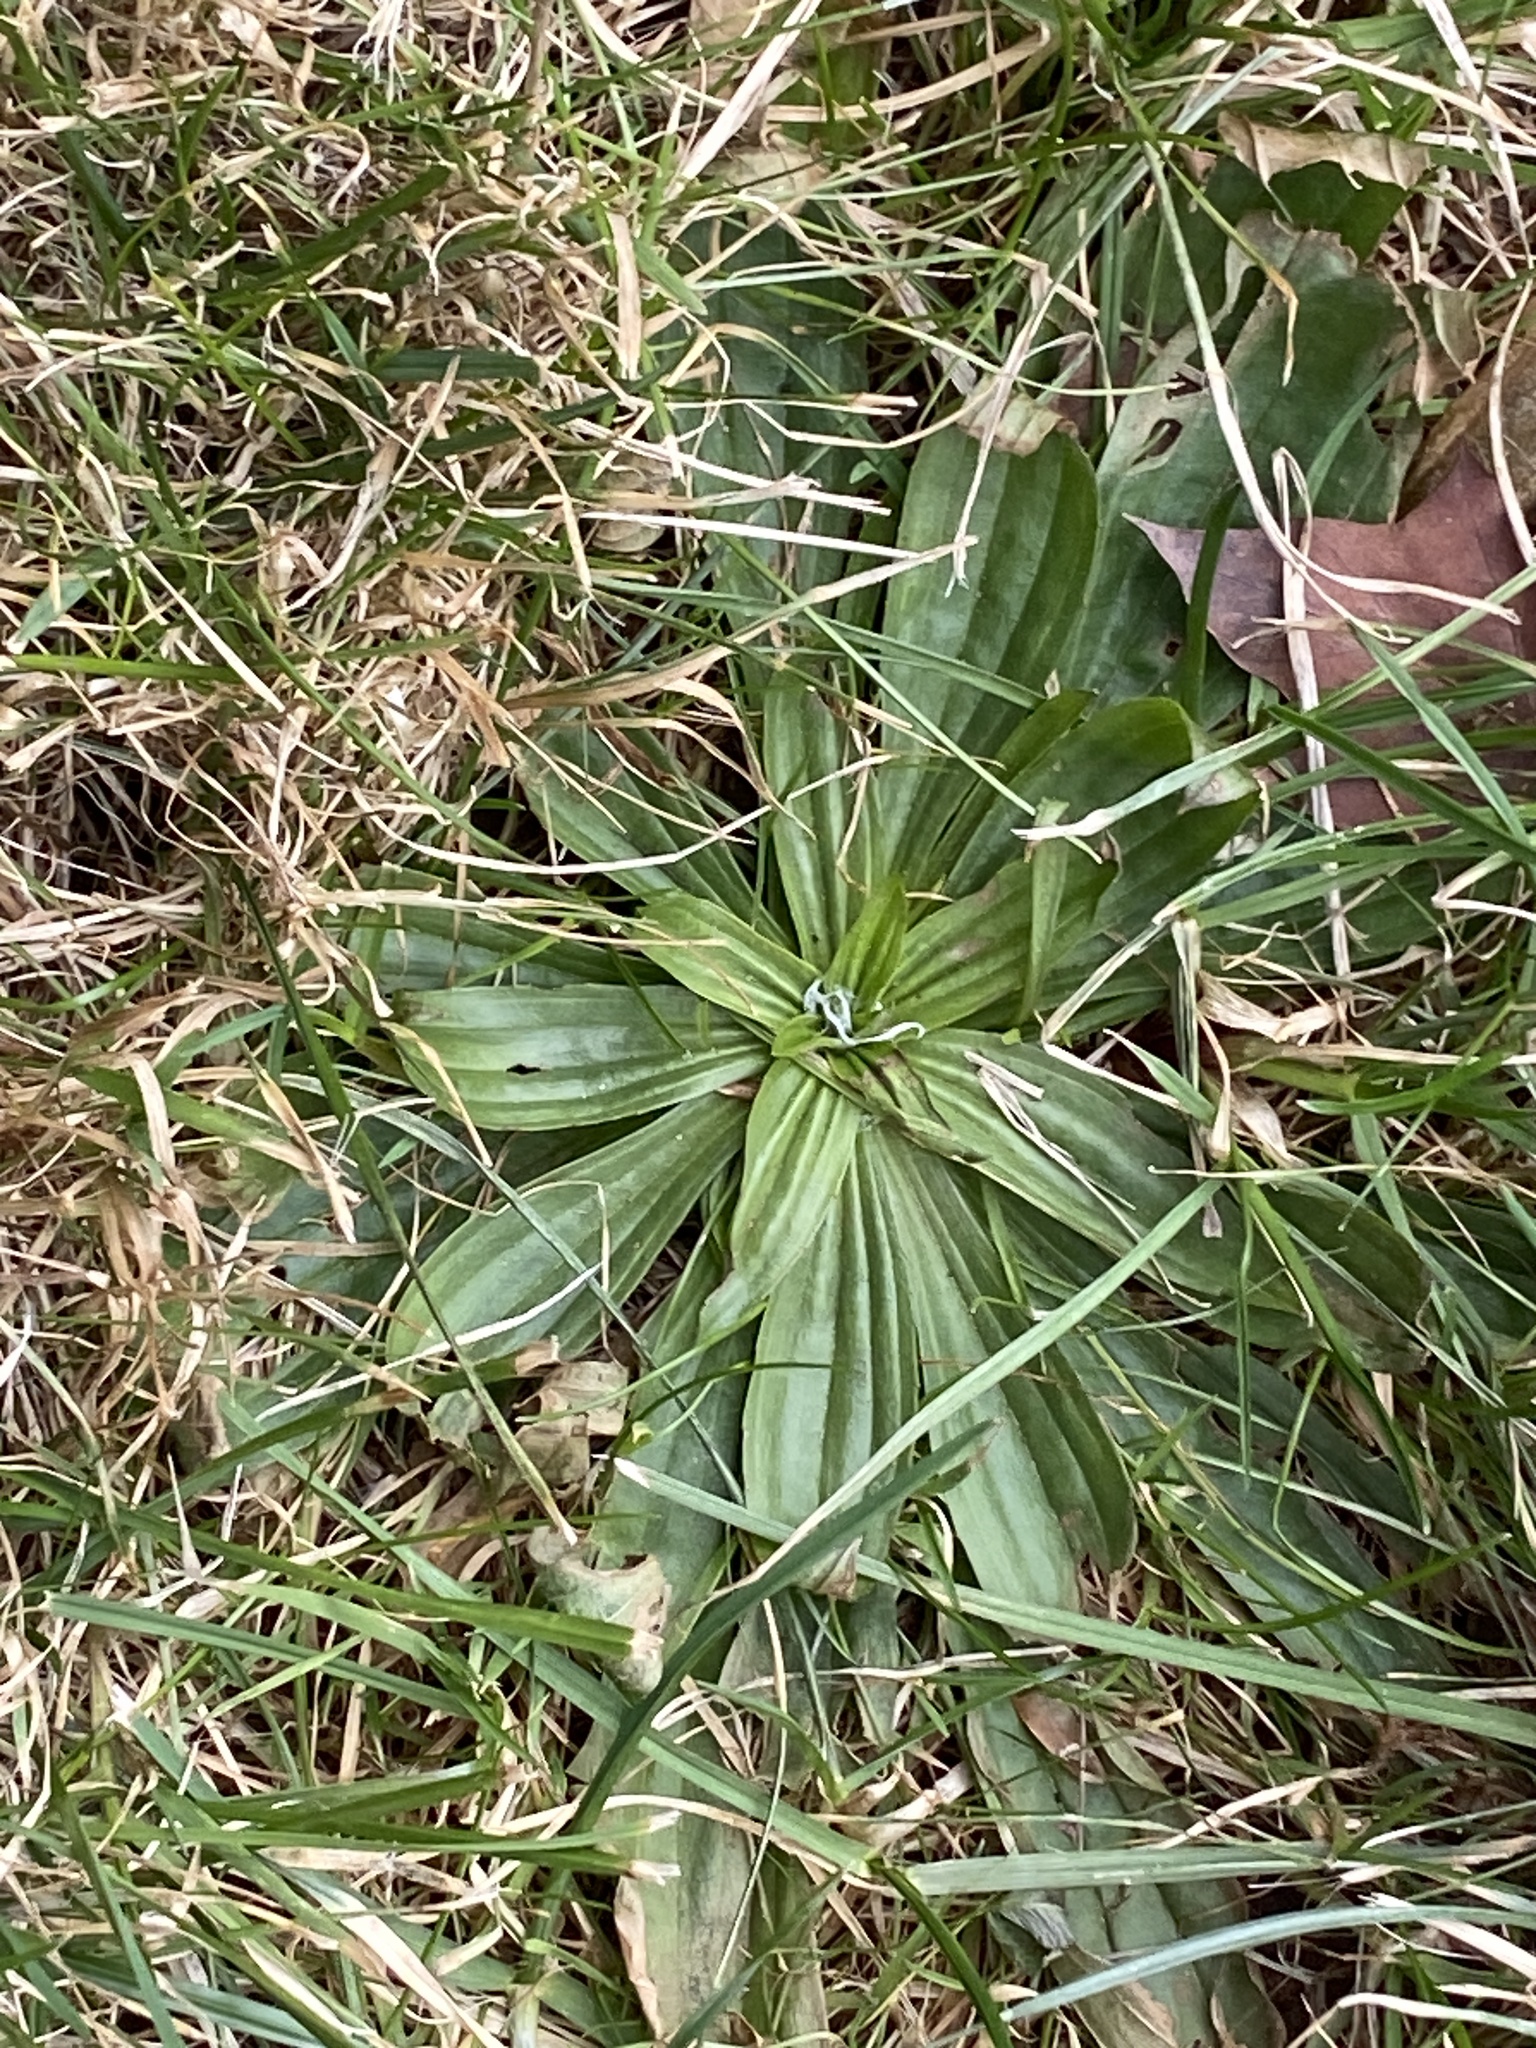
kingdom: Plantae
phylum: Tracheophyta
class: Magnoliopsida
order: Lamiales
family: Plantaginaceae
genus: Plantago
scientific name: Plantago lanceolata
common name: Ribwort plantain
